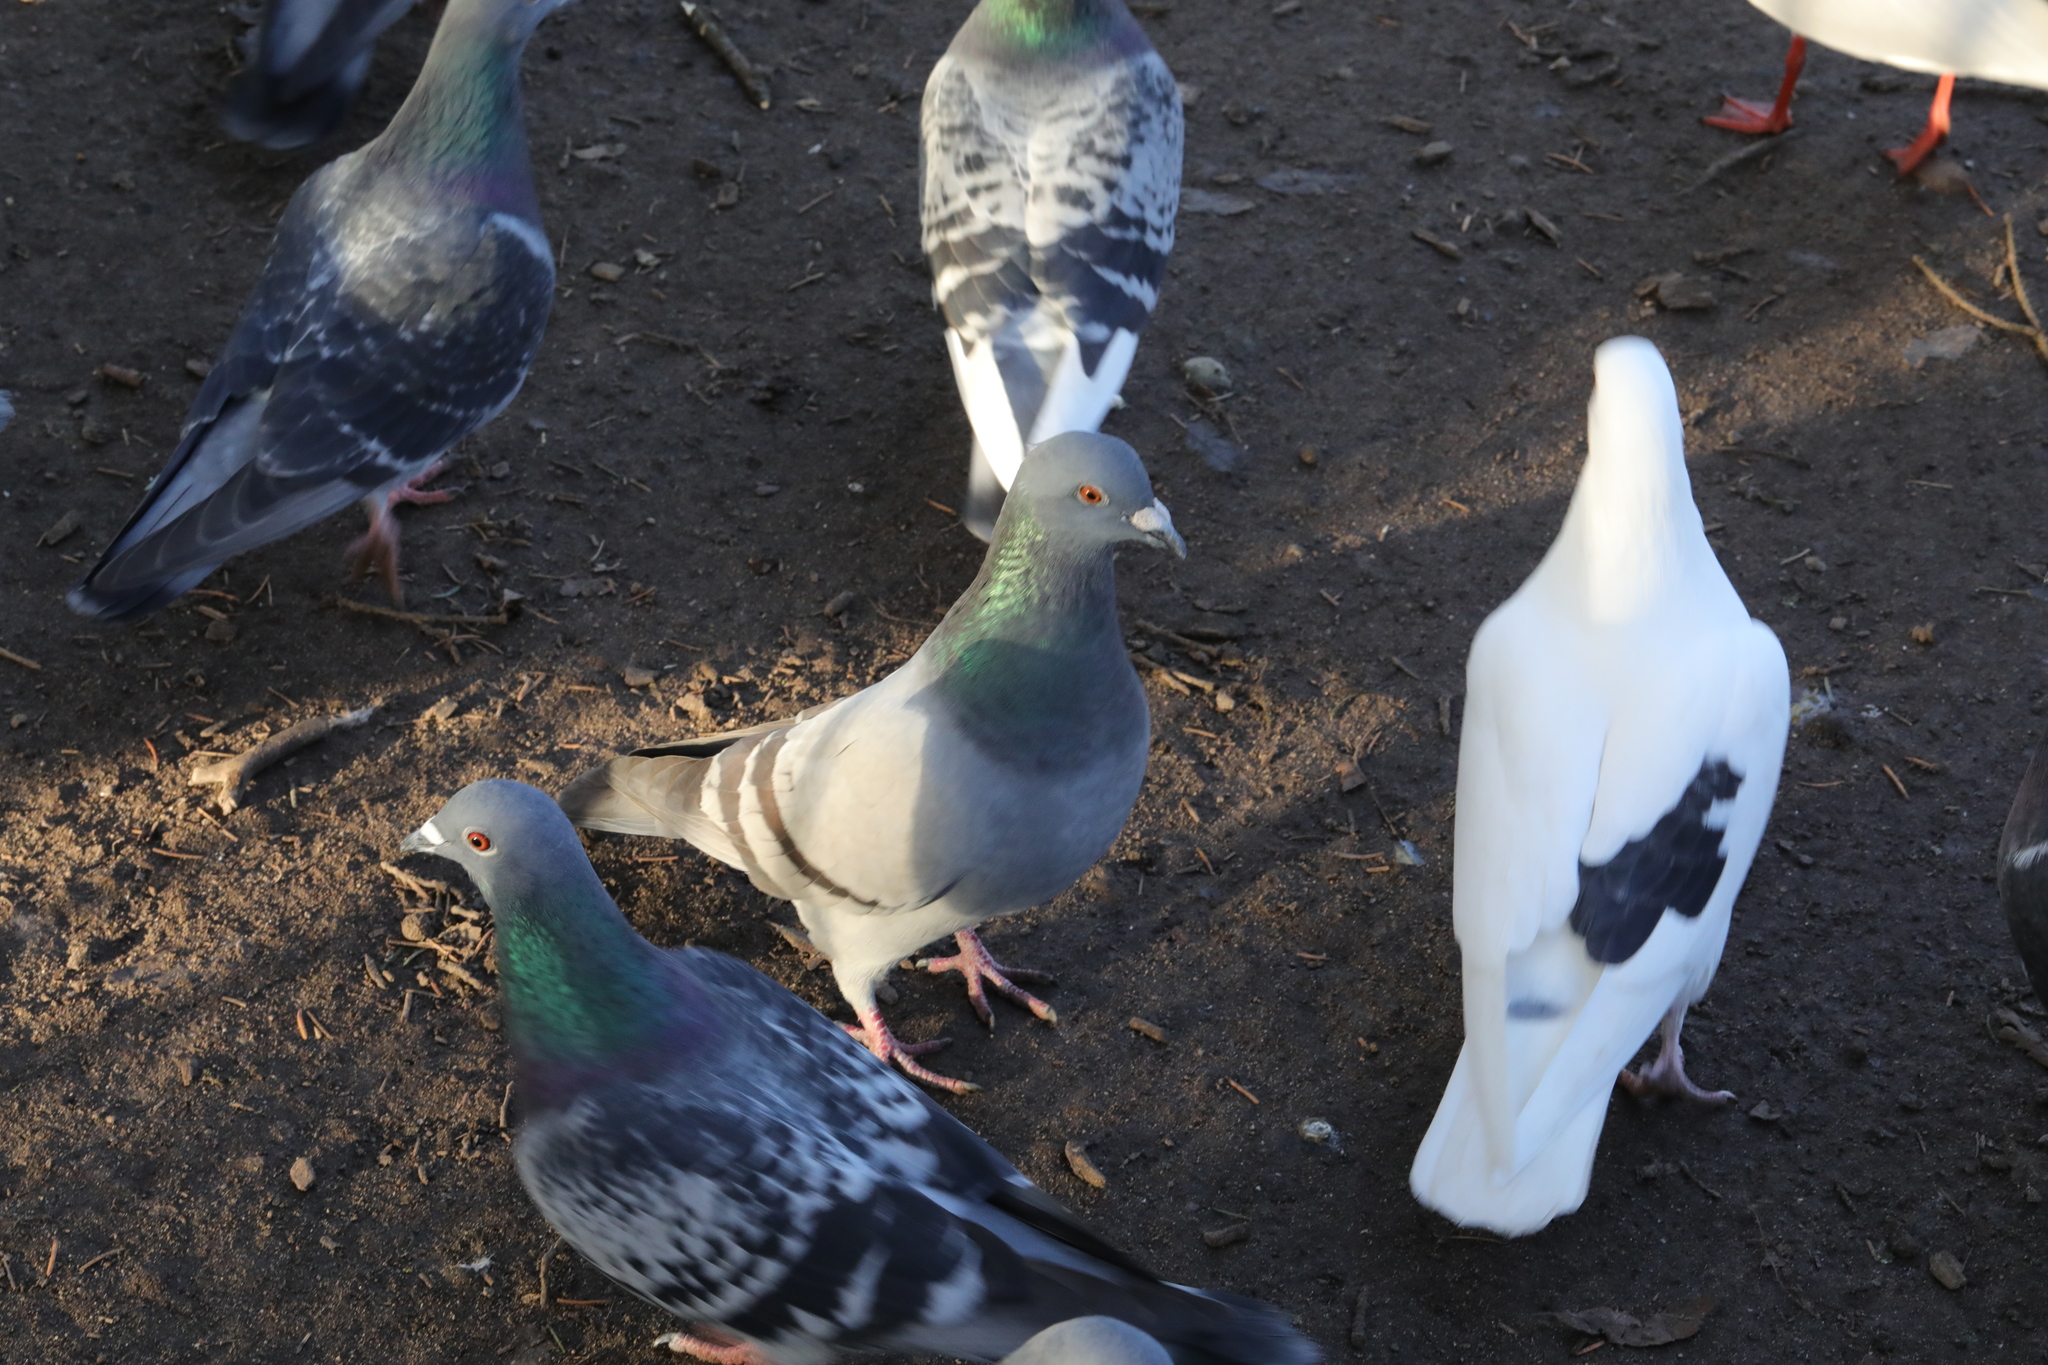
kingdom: Animalia
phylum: Chordata
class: Aves
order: Columbiformes
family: Columbidae
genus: Columba
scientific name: Columba livia
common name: Rock pigeon
